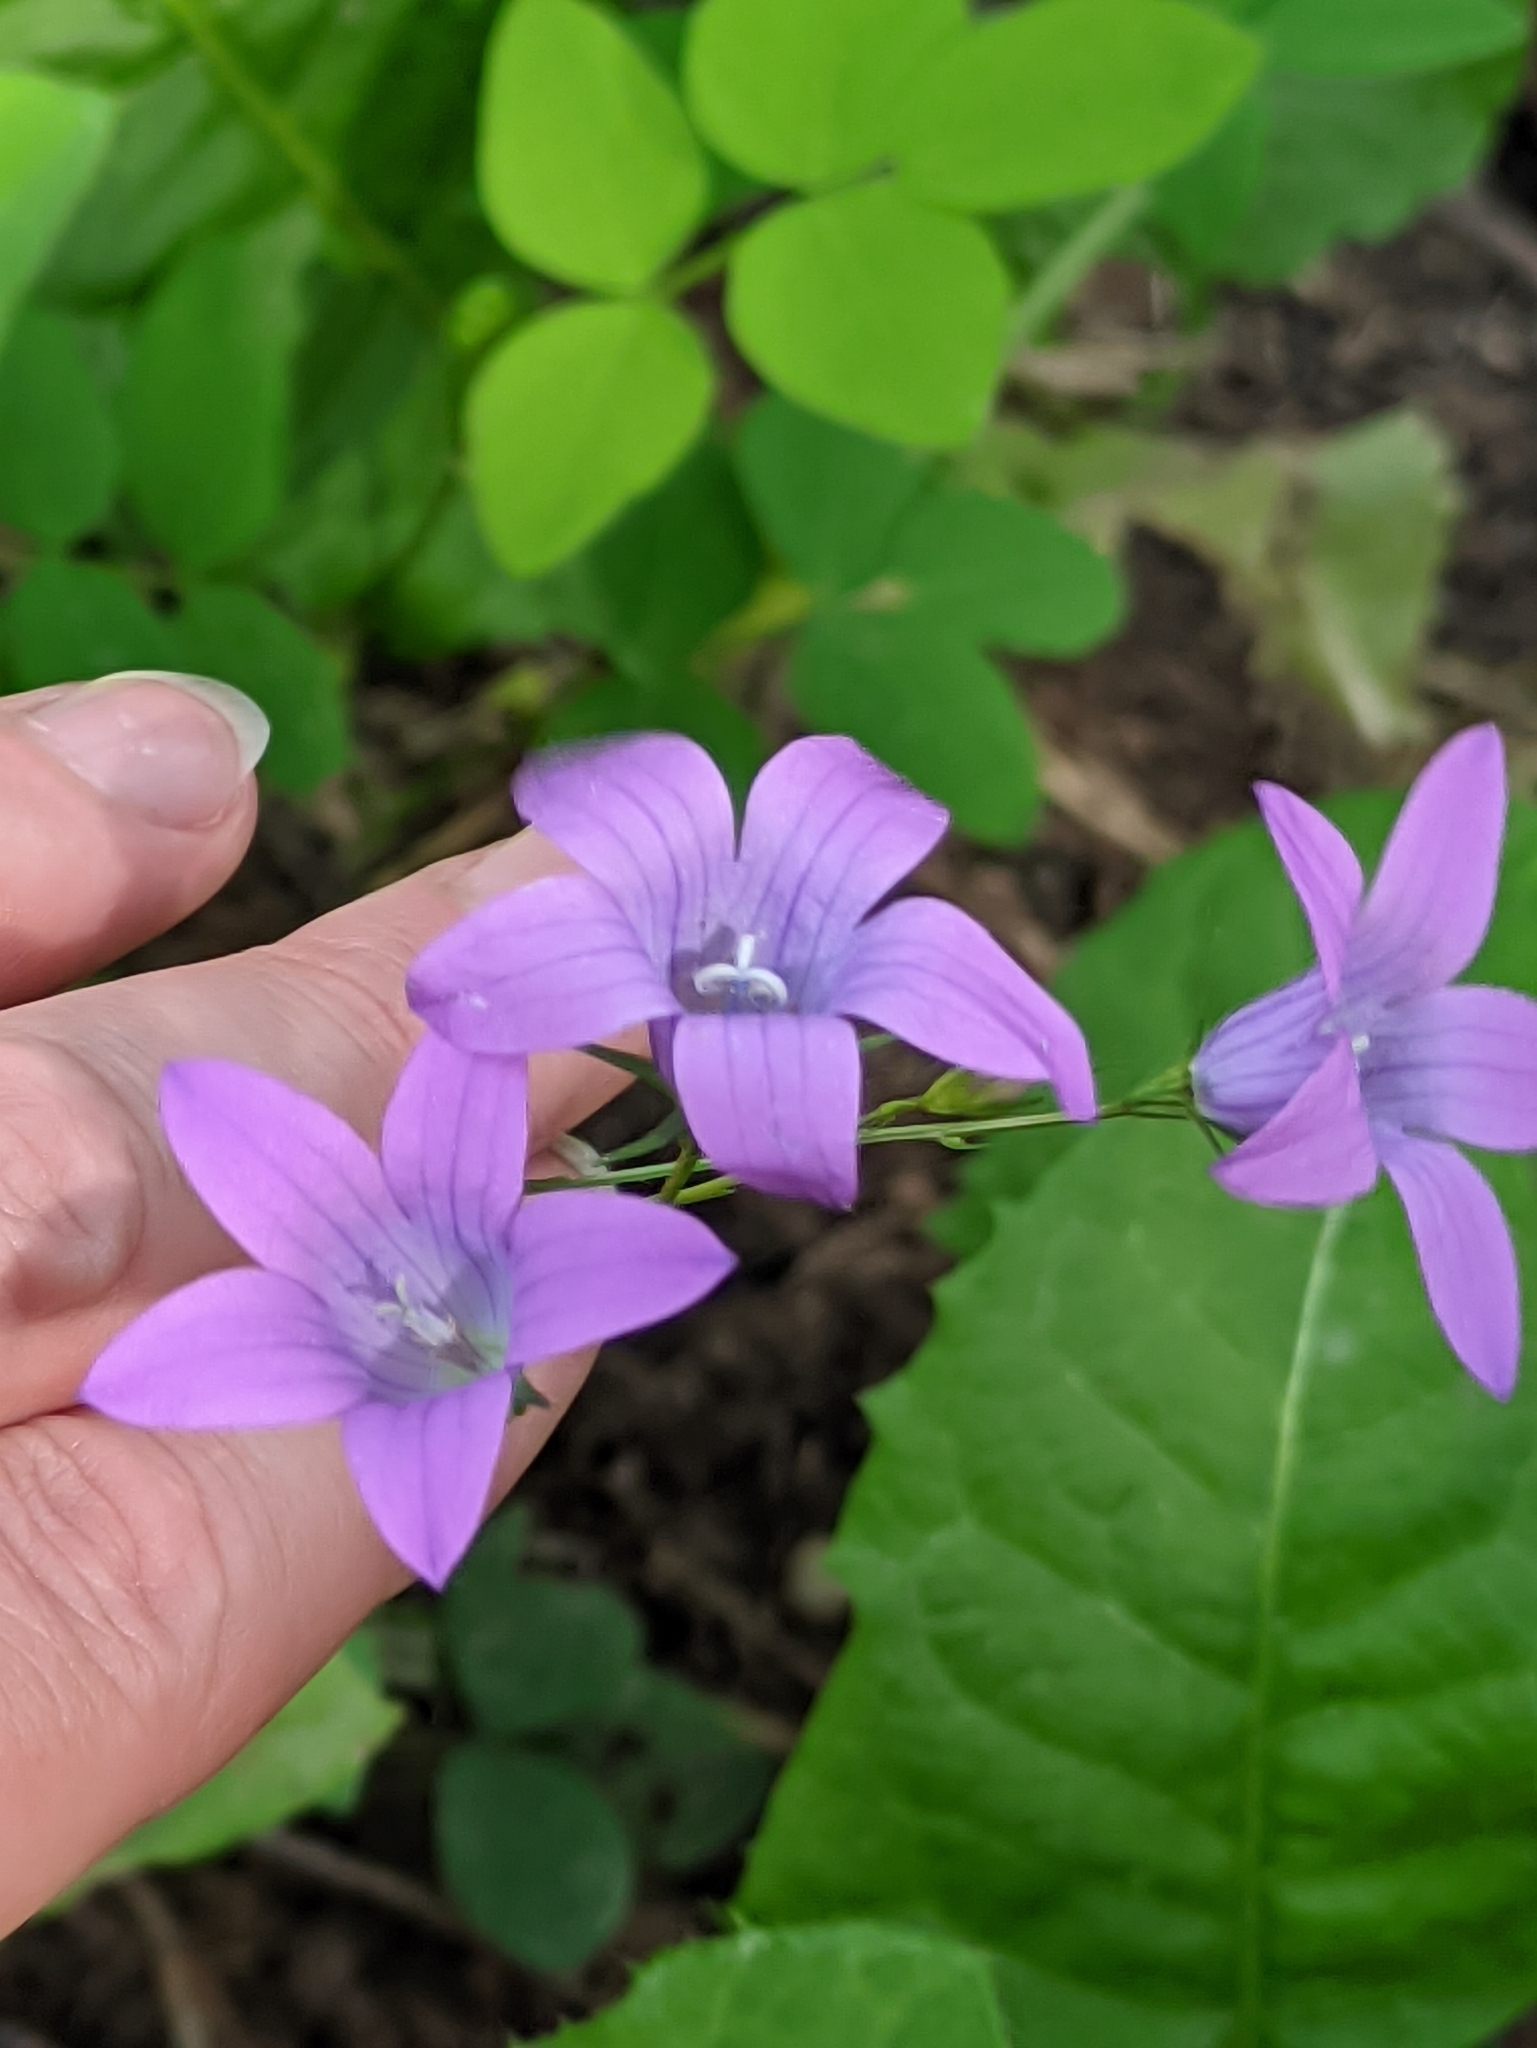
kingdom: Plantae
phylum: Tracheophyta
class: Magnoliopsida
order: Asterales
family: Campanulaceae
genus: Campanula
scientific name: Campanula patula
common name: Spreading bellflower
